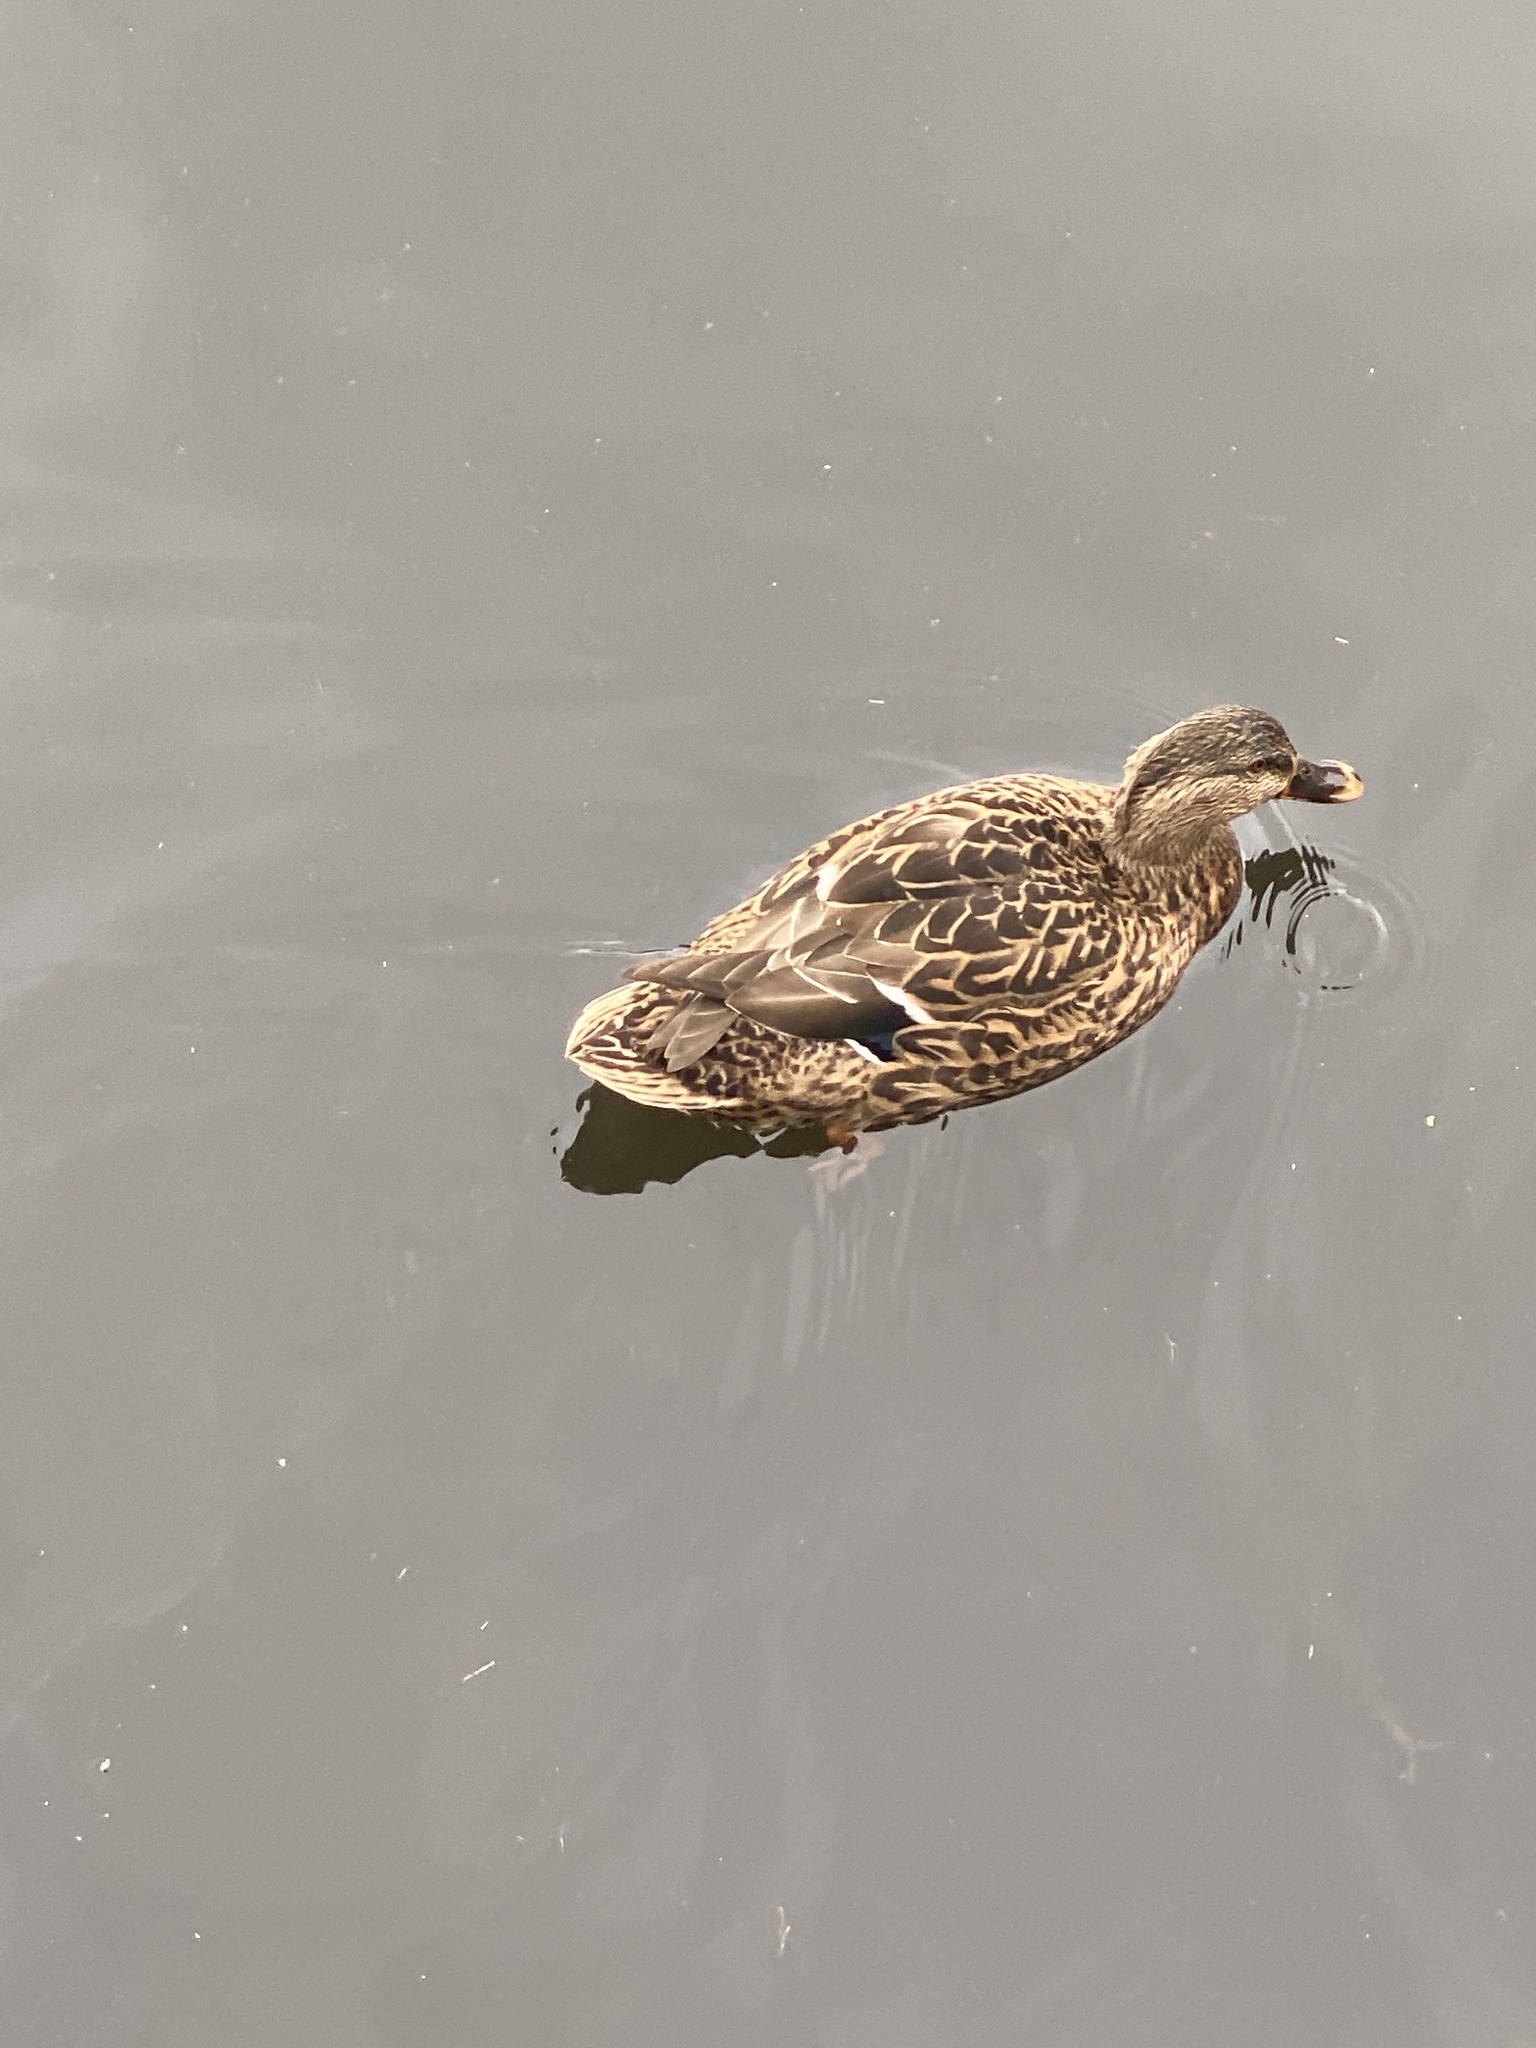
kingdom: Animalia
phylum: Chordata
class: Aves
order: Anseriformes
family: Anatidae
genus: Anas
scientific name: Anas platyrhynchos
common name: Mallard
